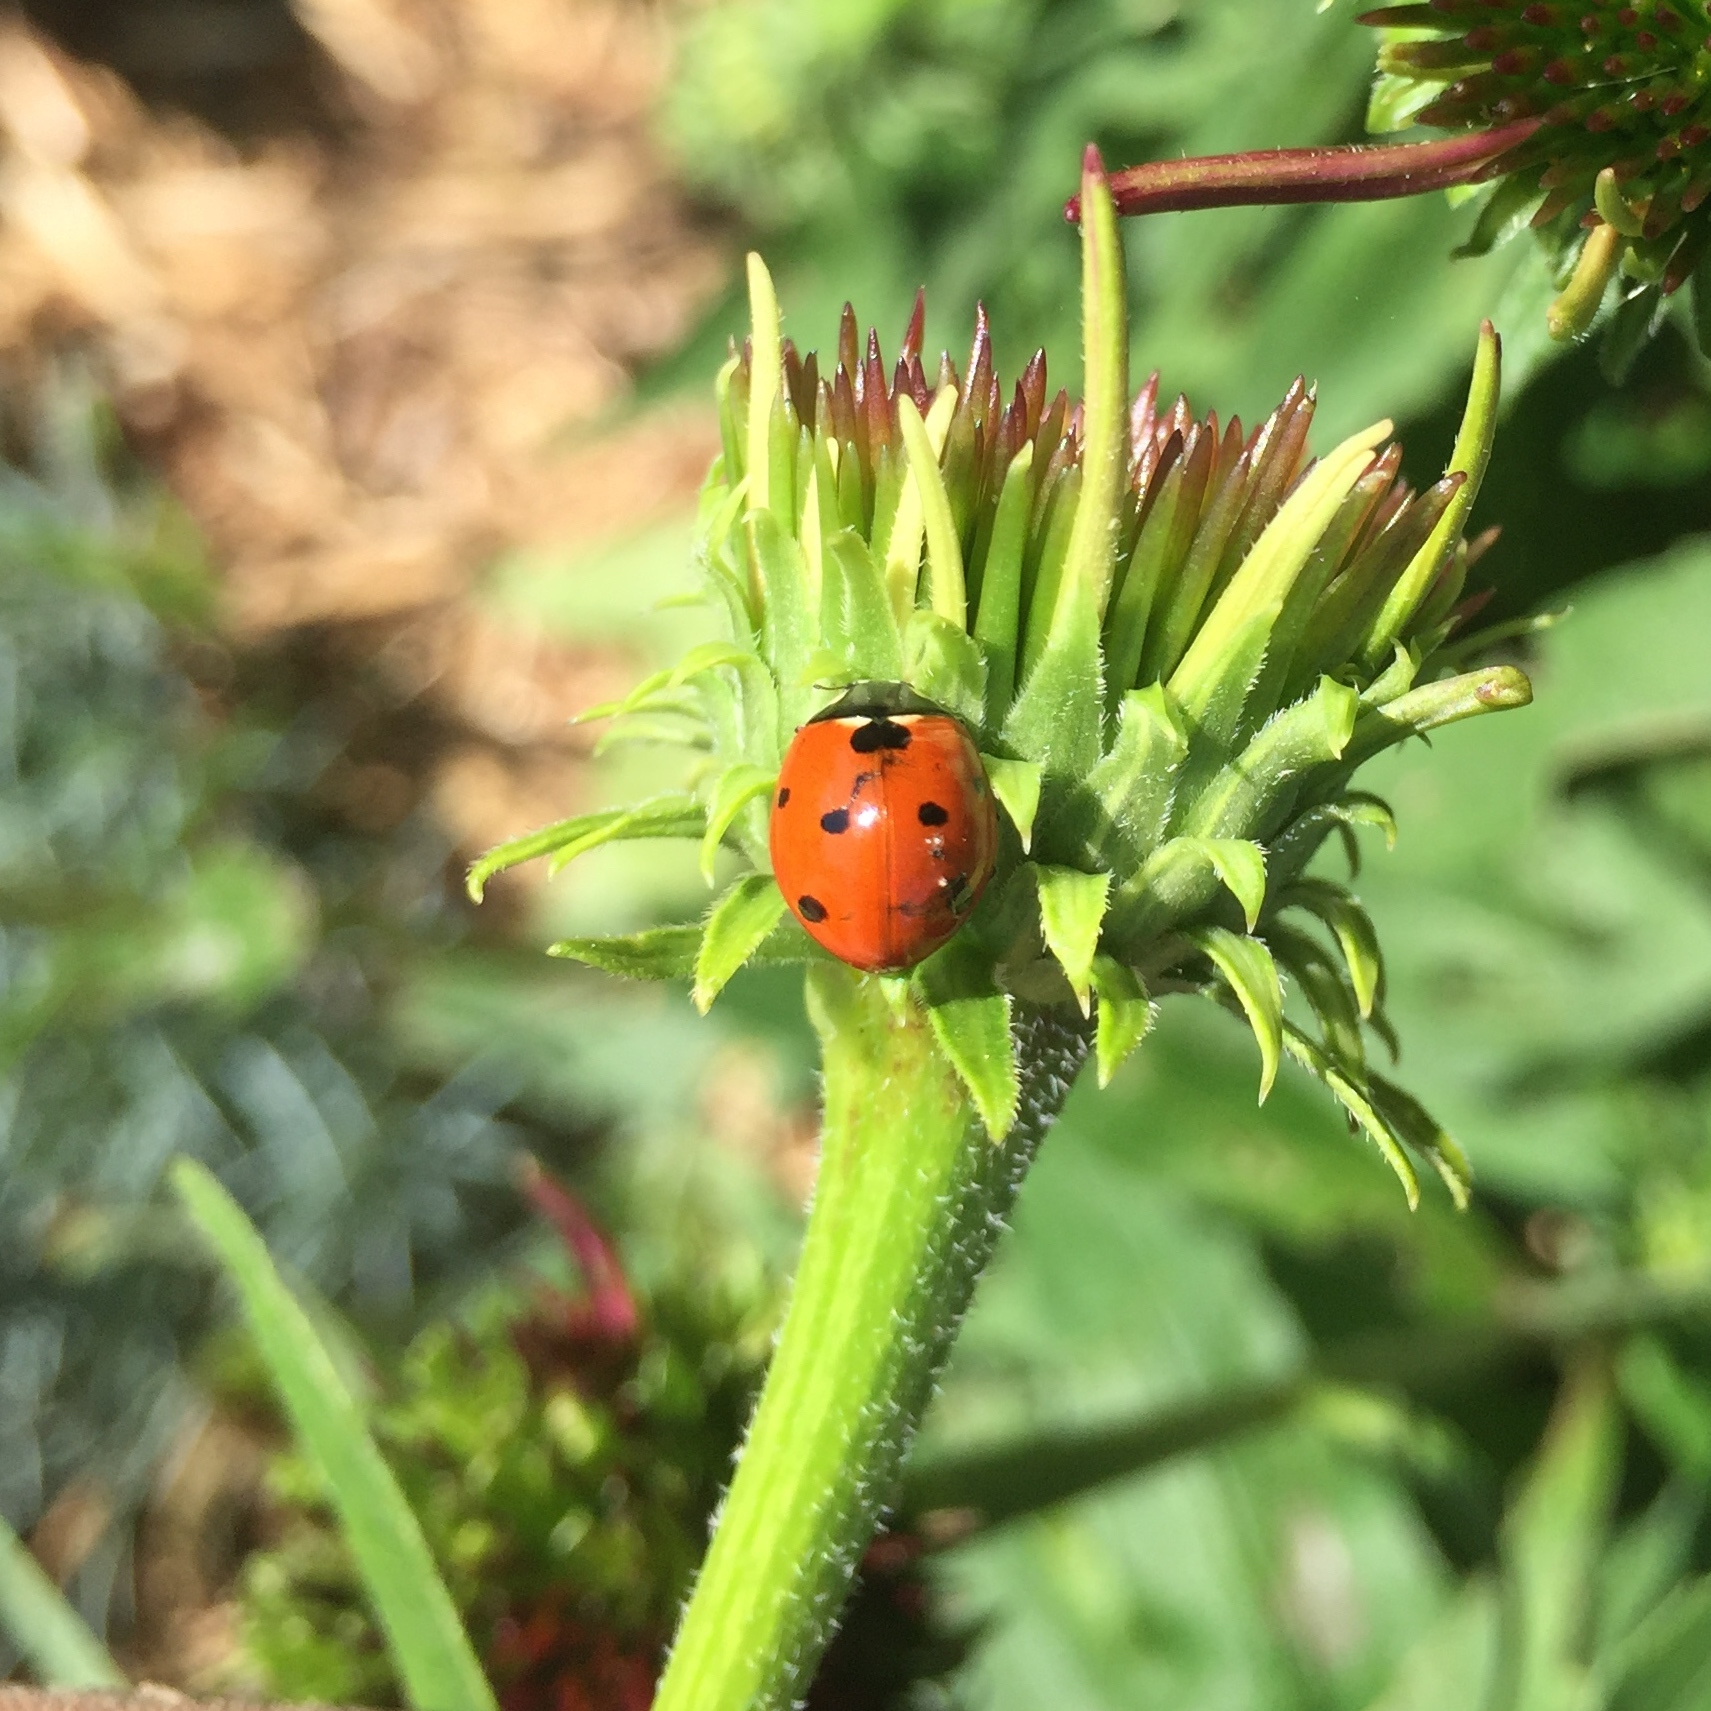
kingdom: Animalia
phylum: Arthropoda
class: Insecta
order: Coleoptera
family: Coccinellidae
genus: Coccinella
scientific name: Coccinella septempunctata
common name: Sevenspotted lady beetle
